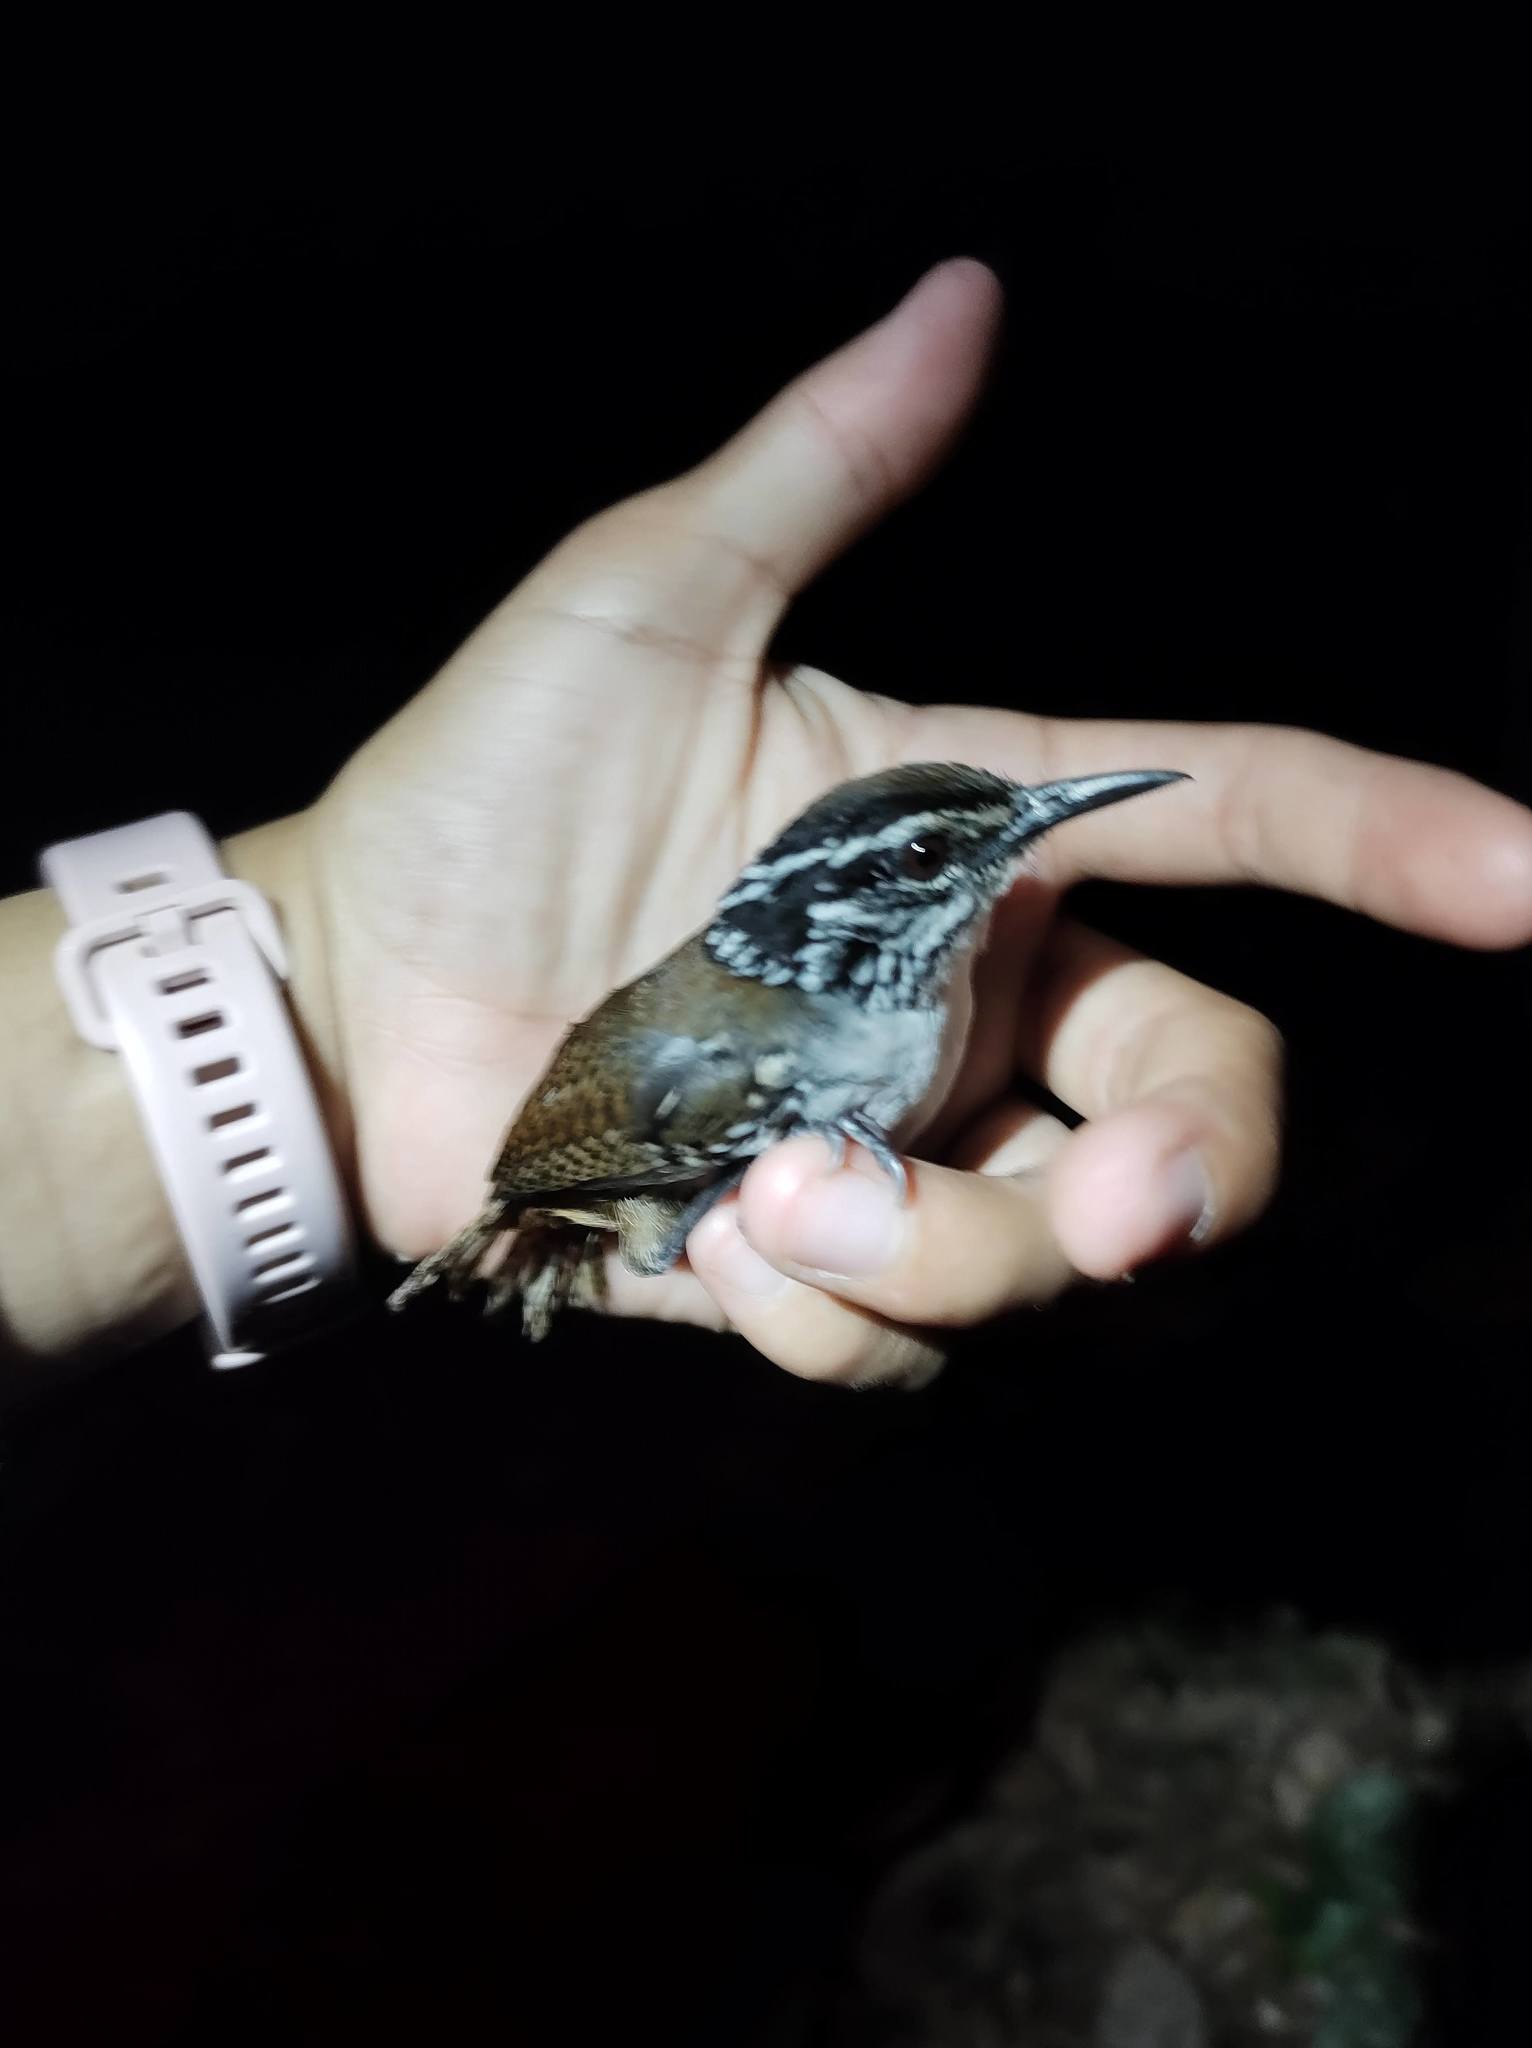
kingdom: Animalia
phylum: Chordata
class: Aves
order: Passeriformes
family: Troglodytidae
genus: Henicorhina
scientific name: Henicorhina leucosticta
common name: White-breasted wood-wren
